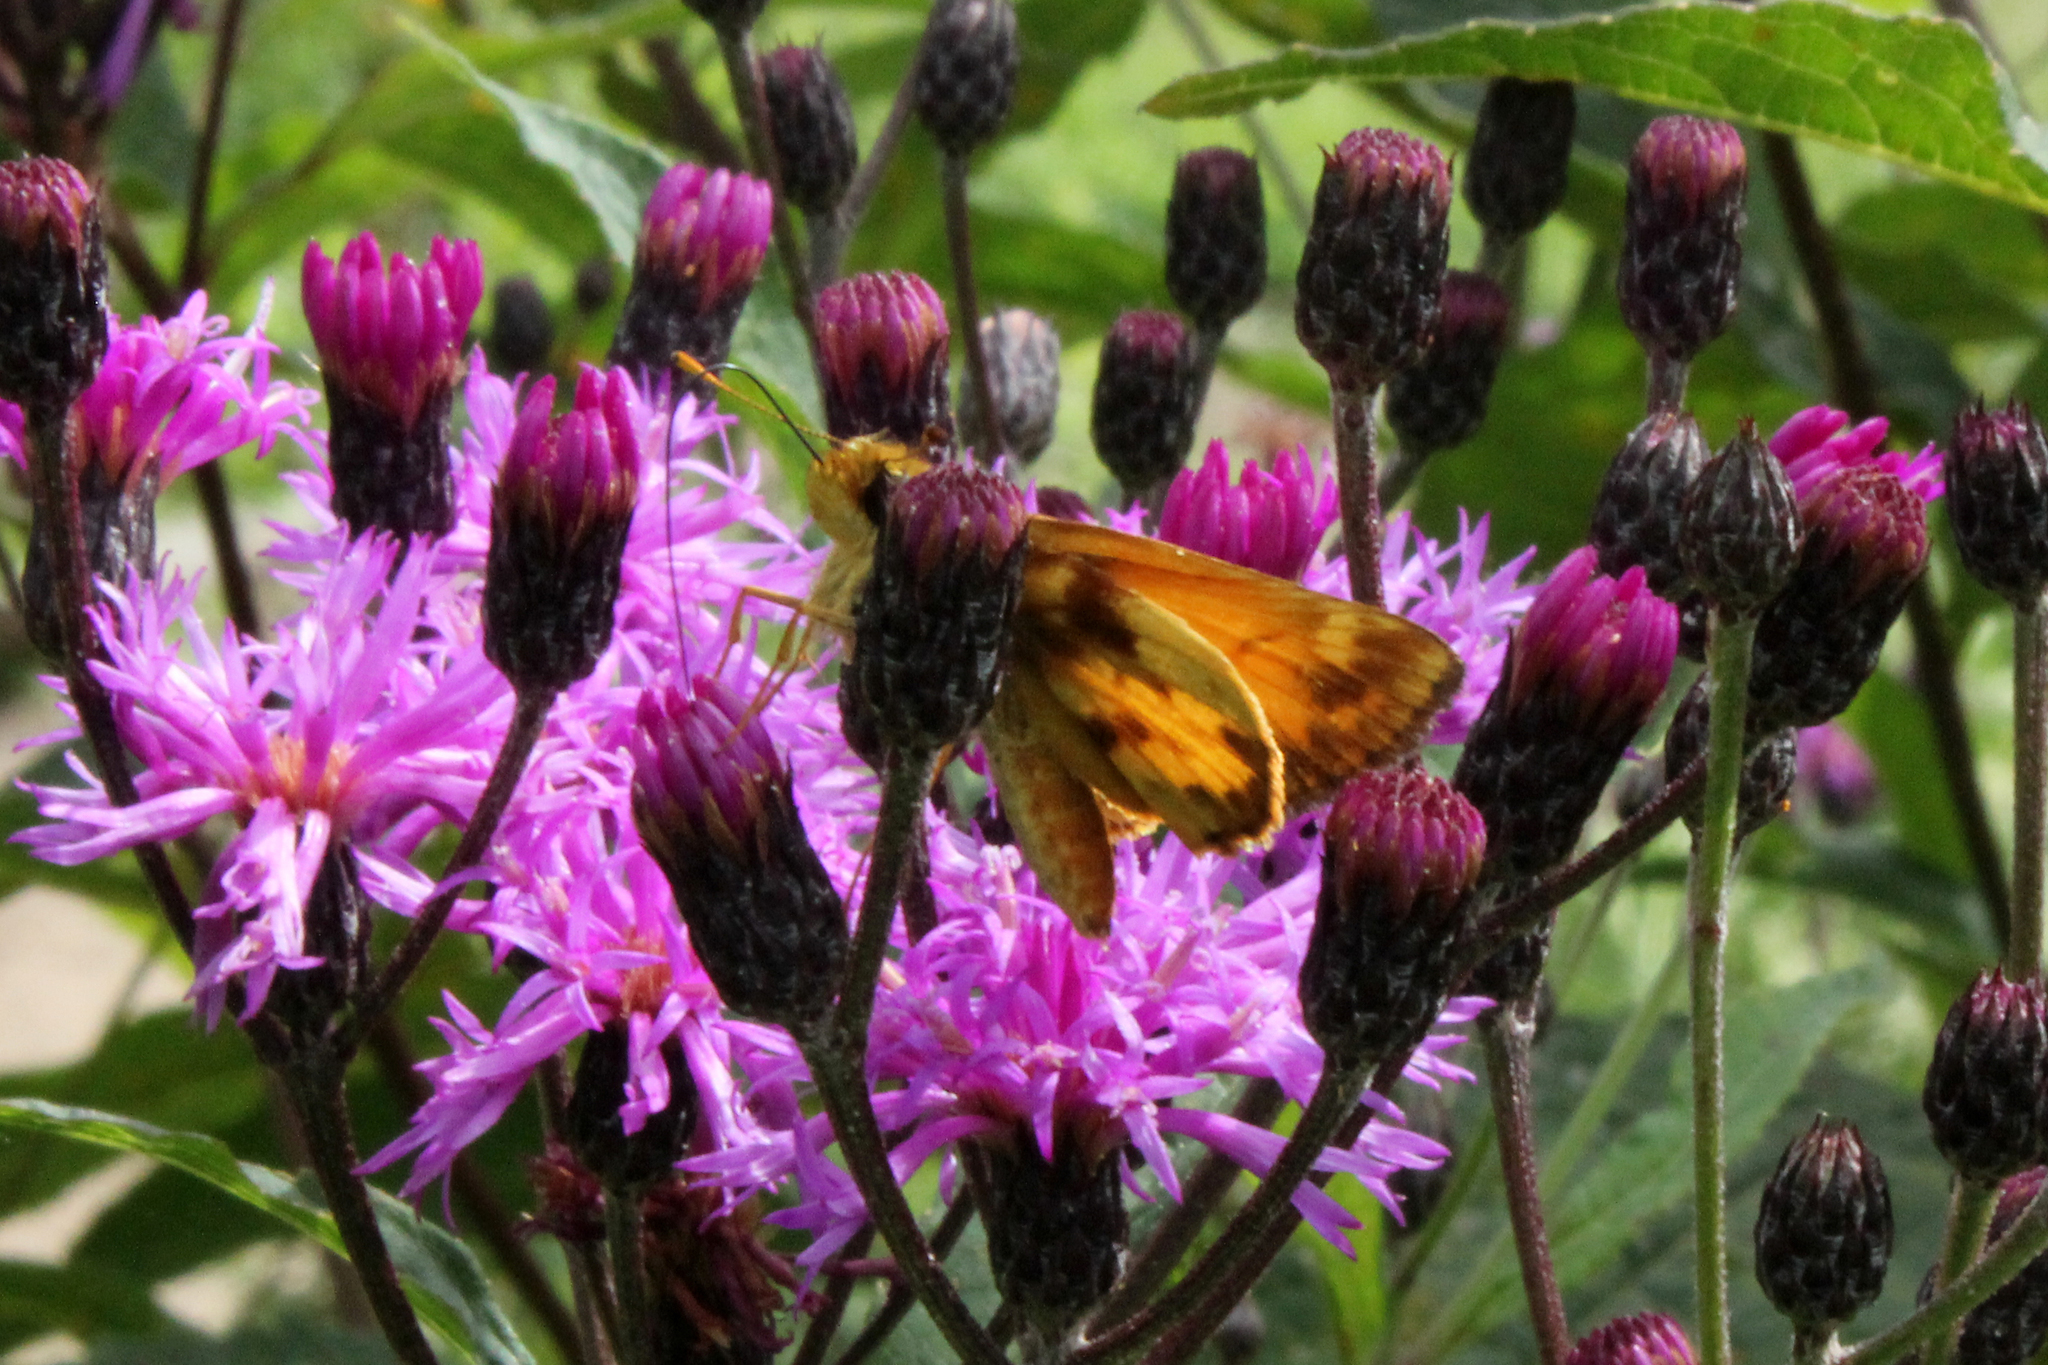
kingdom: Animalia
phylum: Arthropoda
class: Insecta
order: Lepidoptera
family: Hesperiidae
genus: Lon
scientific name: Lon zabulon
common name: Zabulon skipper
